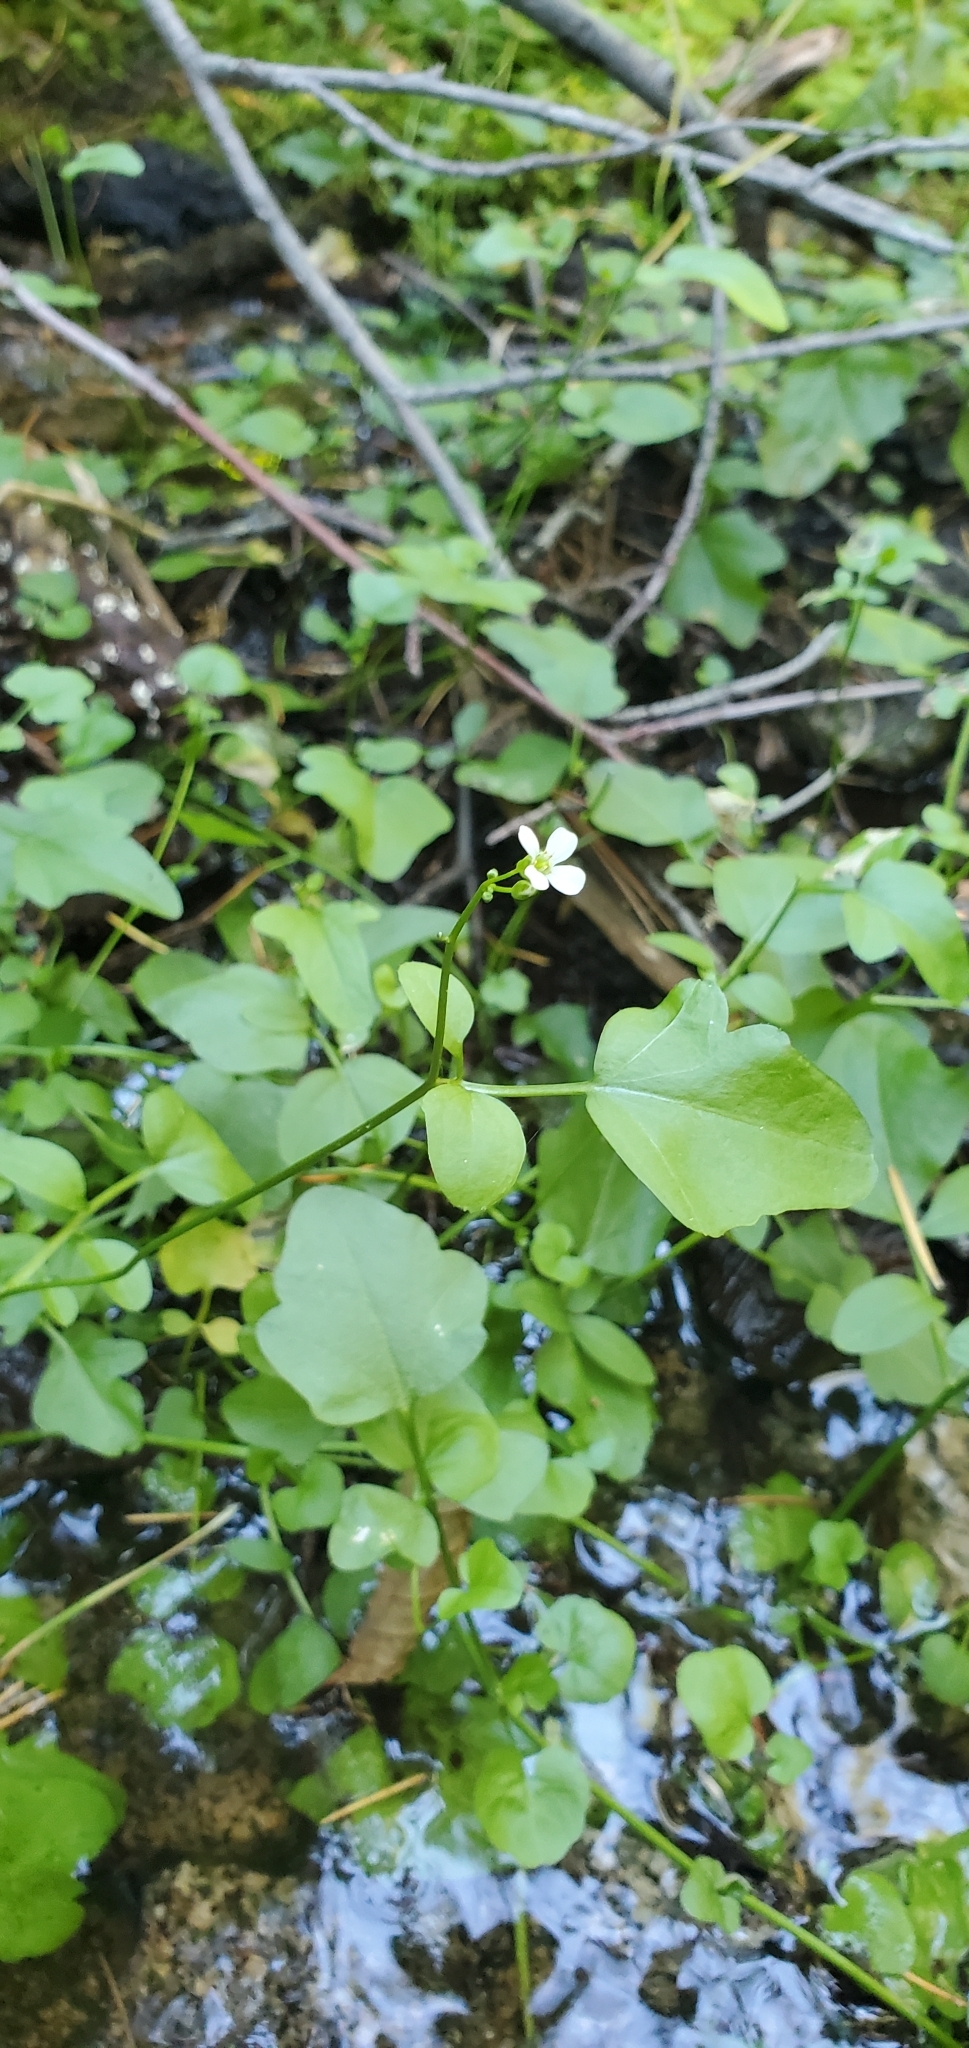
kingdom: Plantae
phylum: Tracheophyta
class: Magnoliopsida
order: Brassicales
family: Brassicaceae
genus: Cardamine
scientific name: Cardamine breweri
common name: Brewer's bittercress
